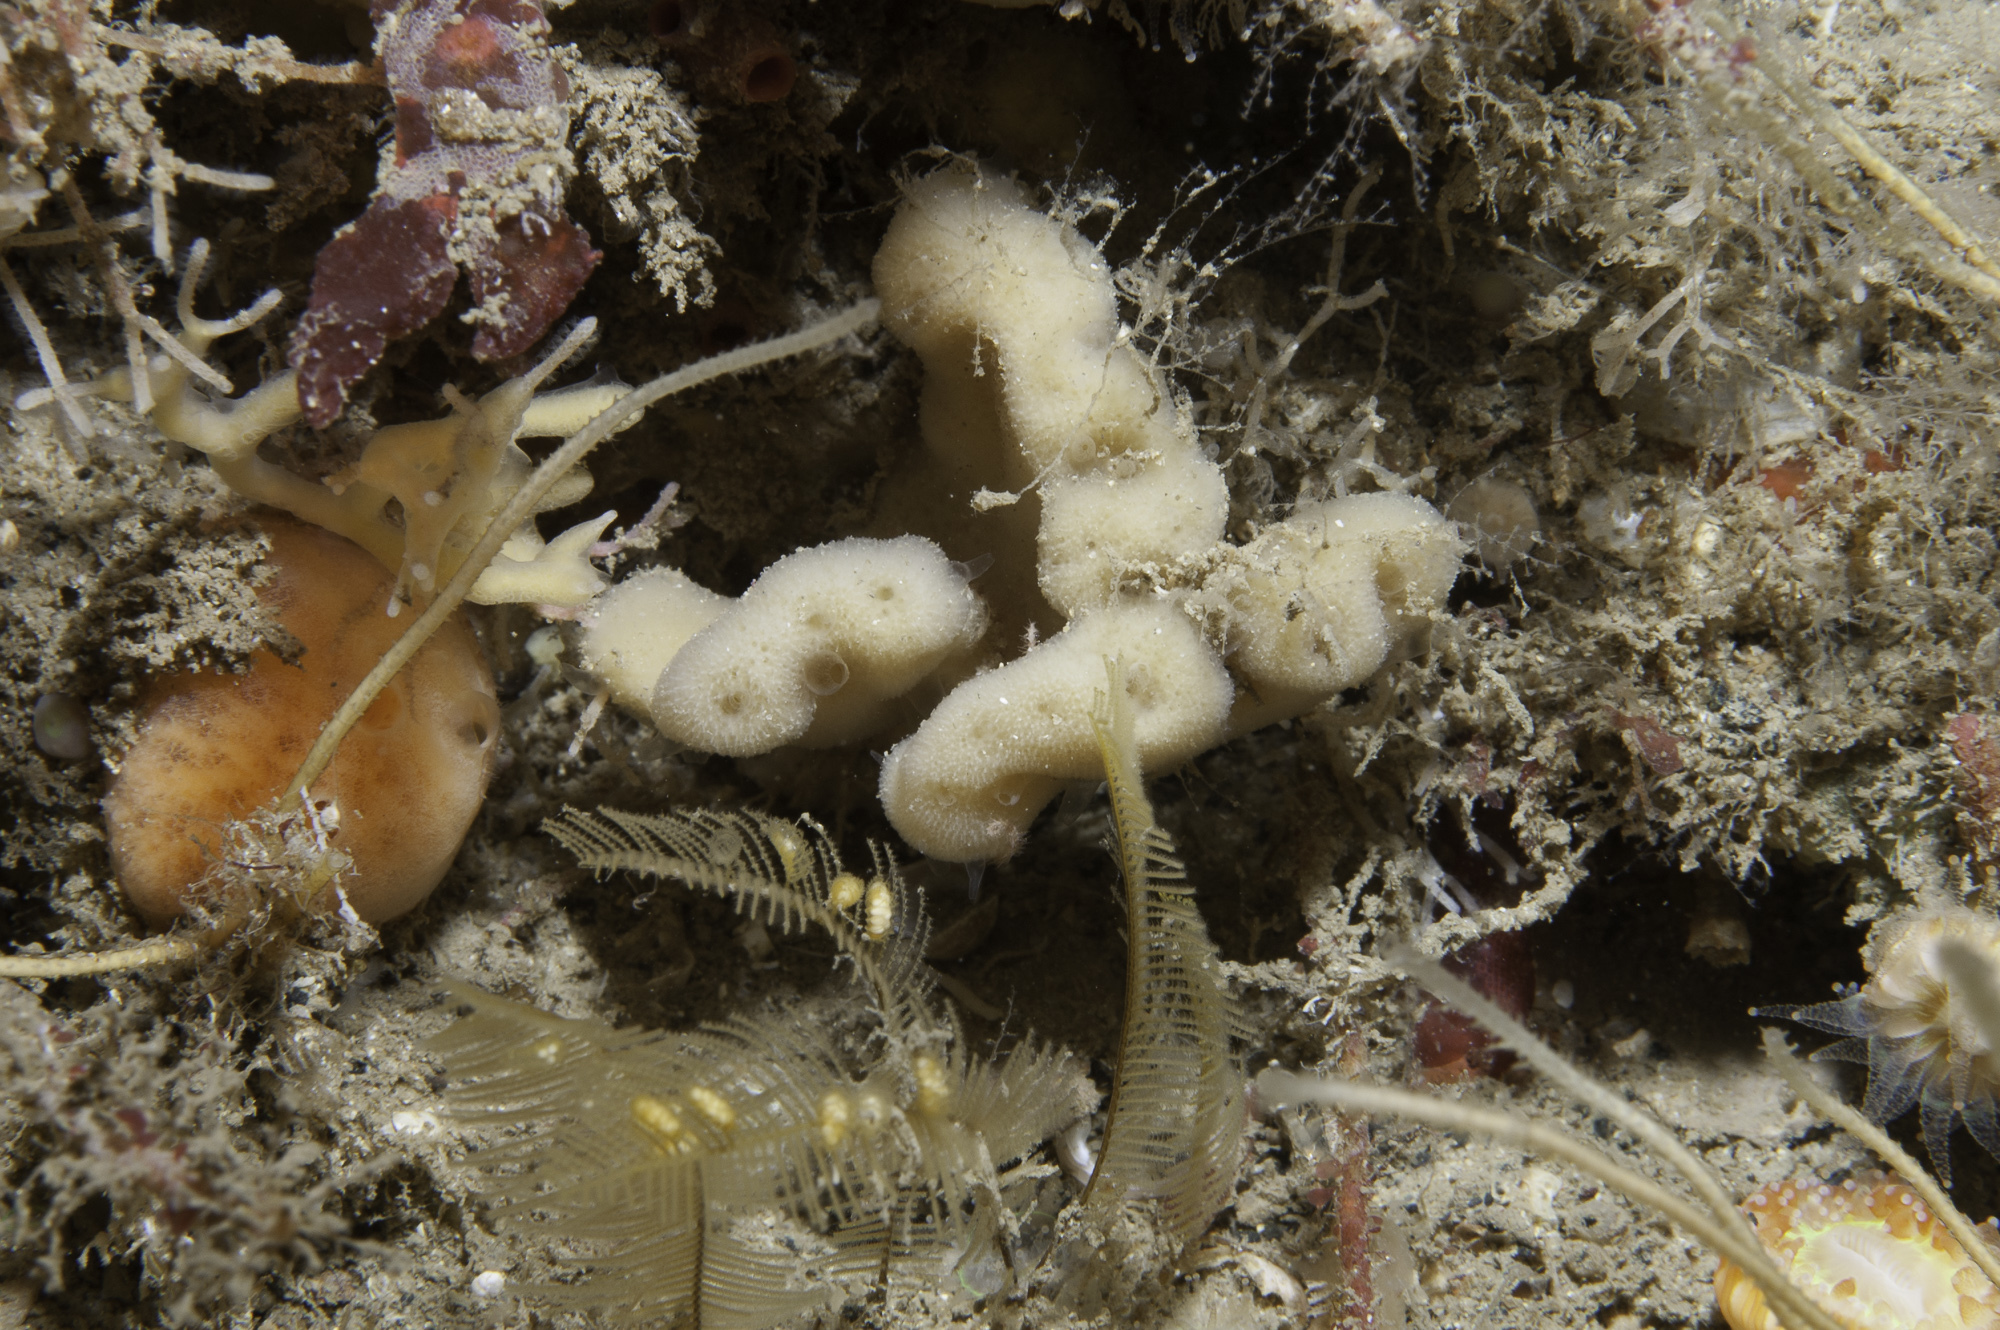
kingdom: Animalia
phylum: Porifera
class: Demospongiae
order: Dendroceratida
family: Dictyodendrillidae
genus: Spongionella
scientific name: Spongionella pulchella
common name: Gorgeous horny sponge
